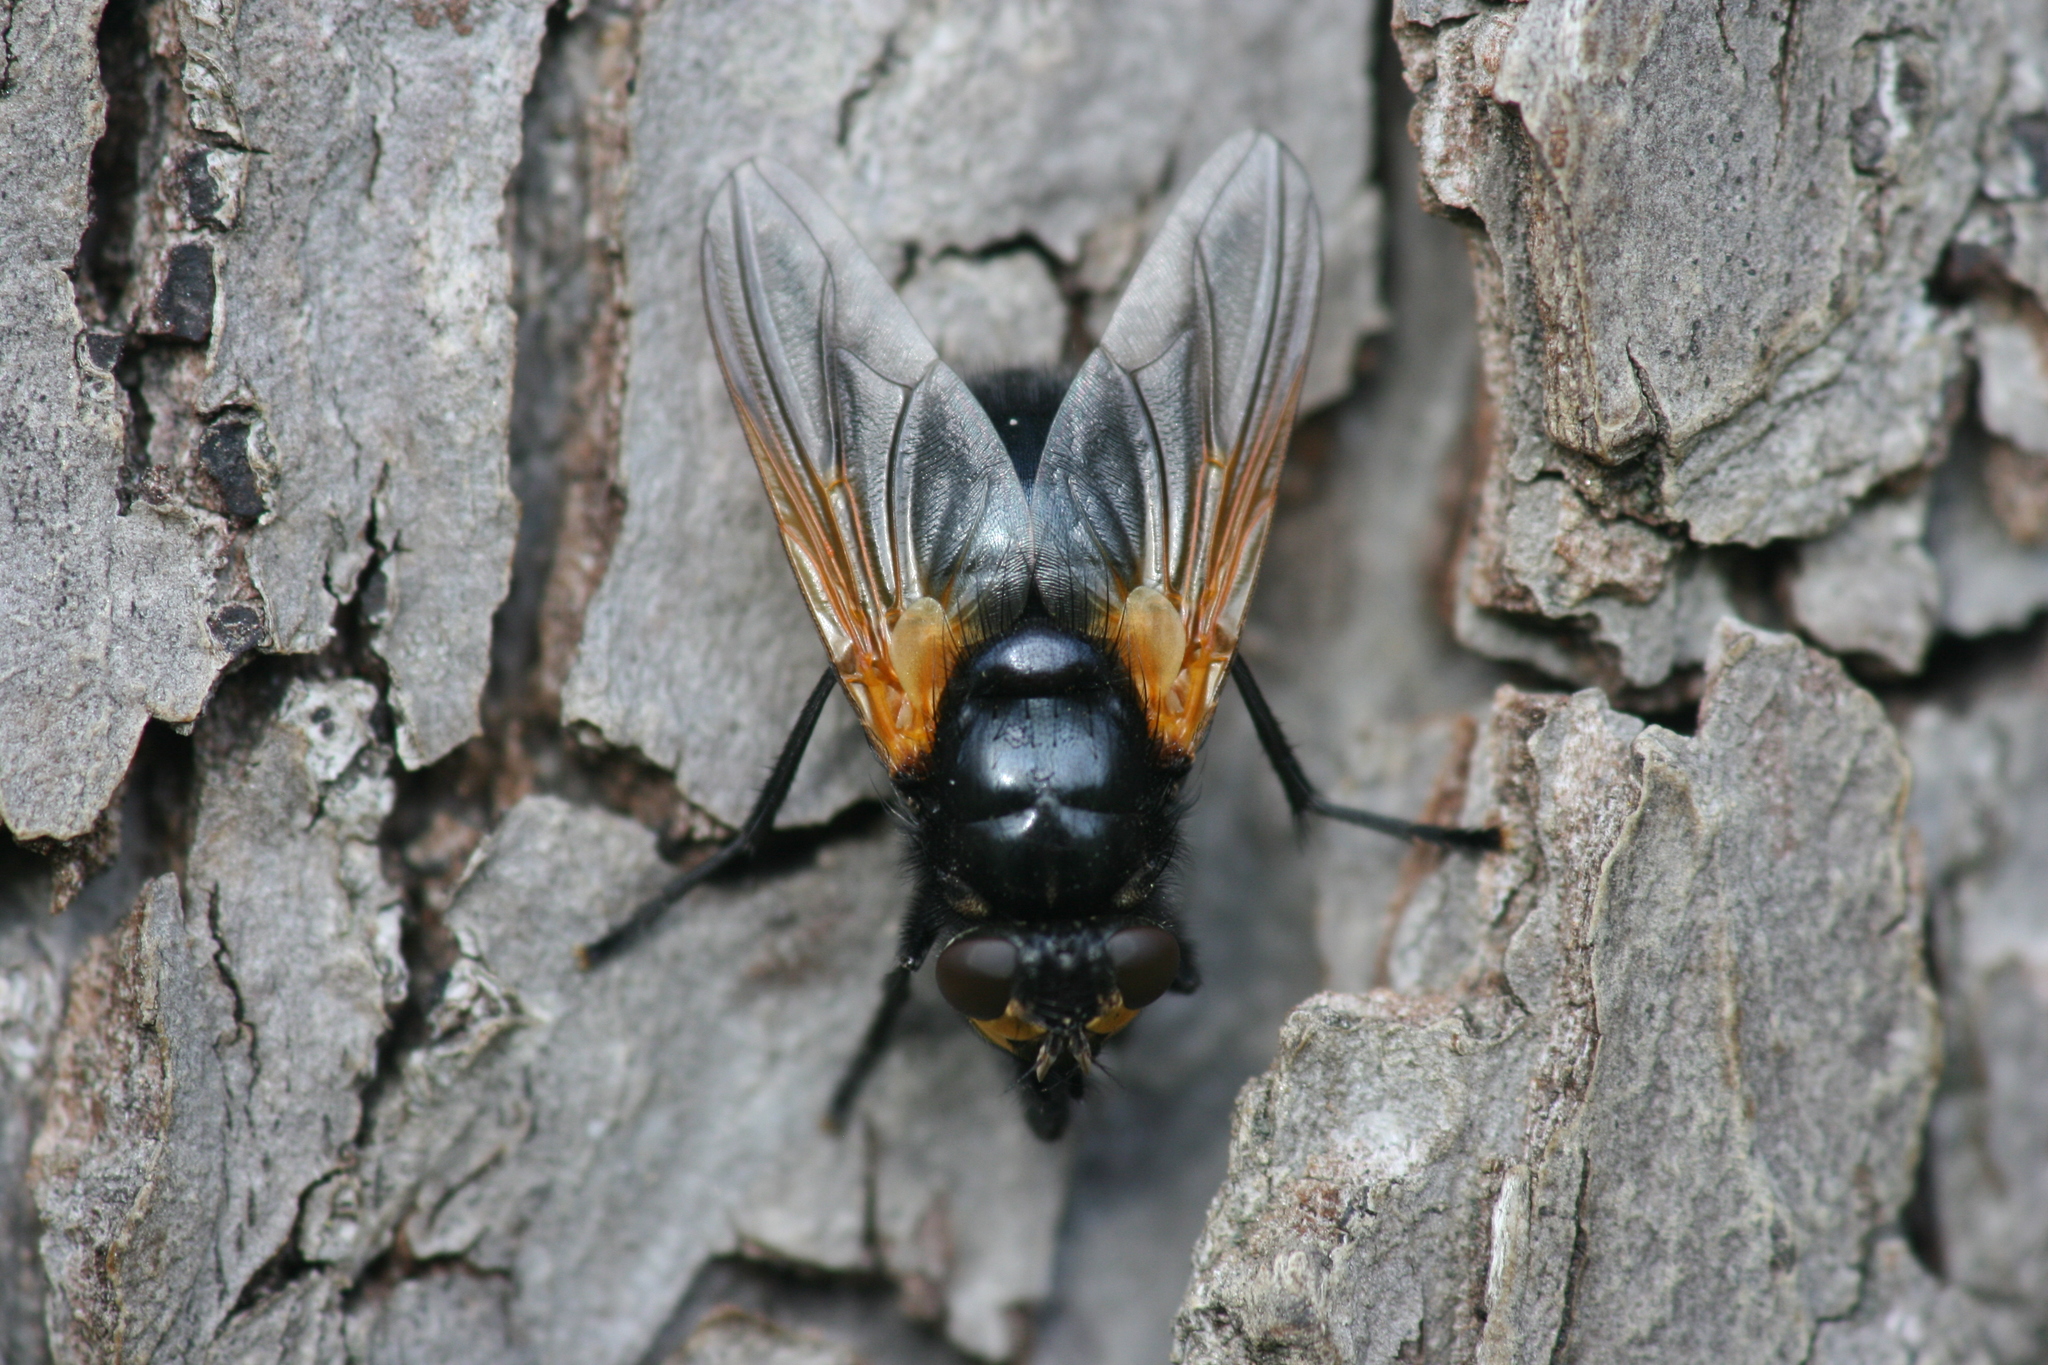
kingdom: Animalia
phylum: Arthropoda
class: Insecta
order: Diptera
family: Muscidae
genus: Mesembrina
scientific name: Mesembrina meridiana
